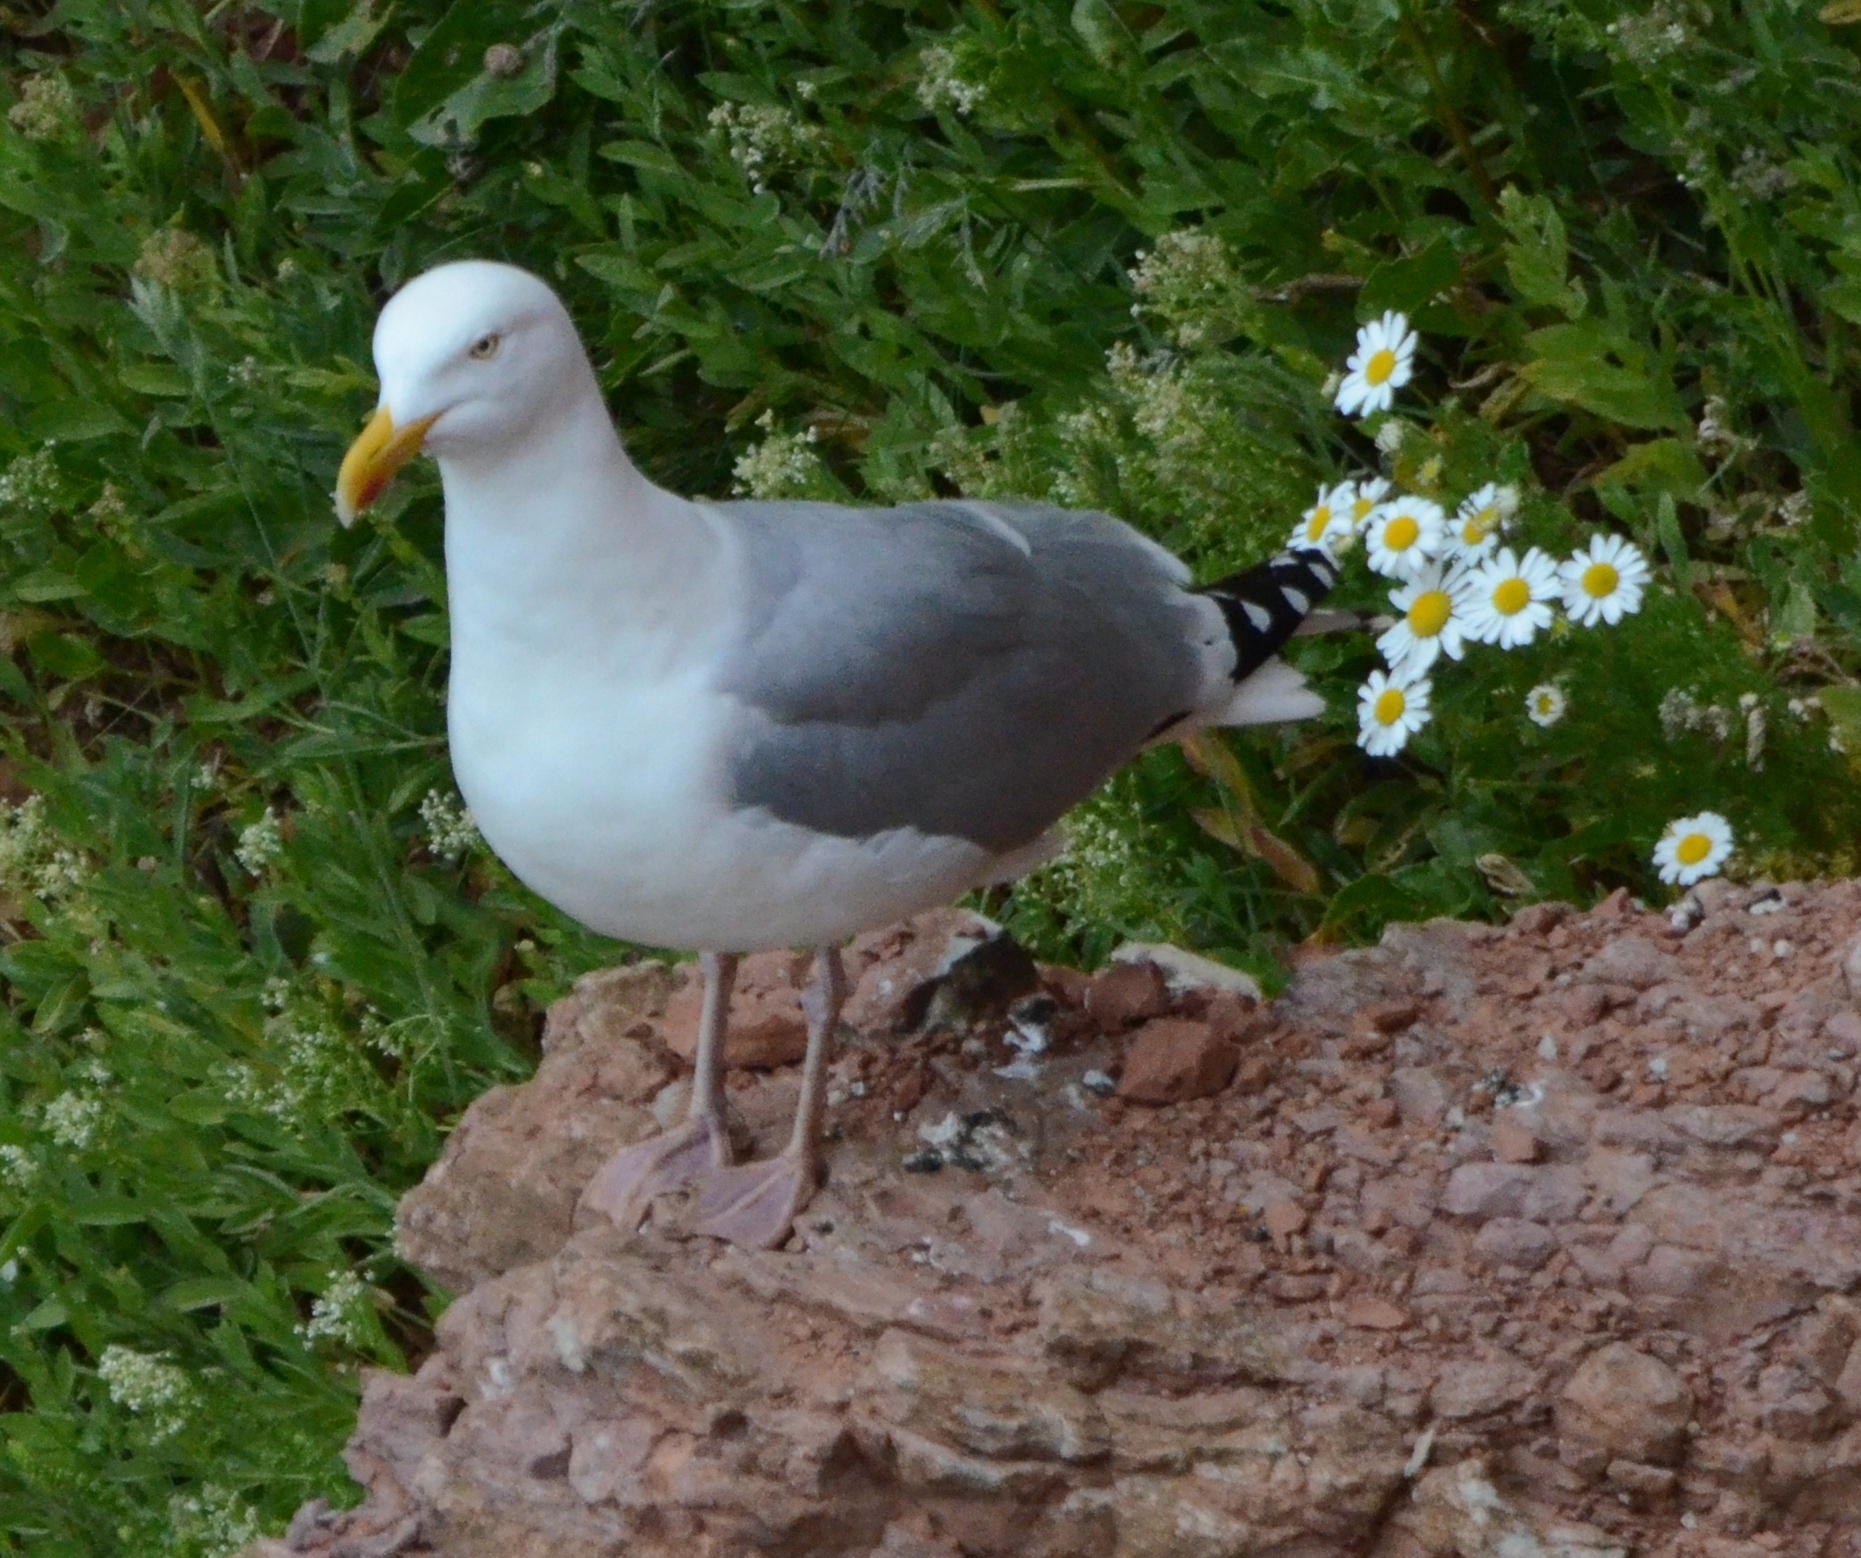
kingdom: Animalia
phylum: Chordata
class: Aves
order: Charadriiformes
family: Laridae
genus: Larus
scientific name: Larus argentatus
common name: Herring gull
